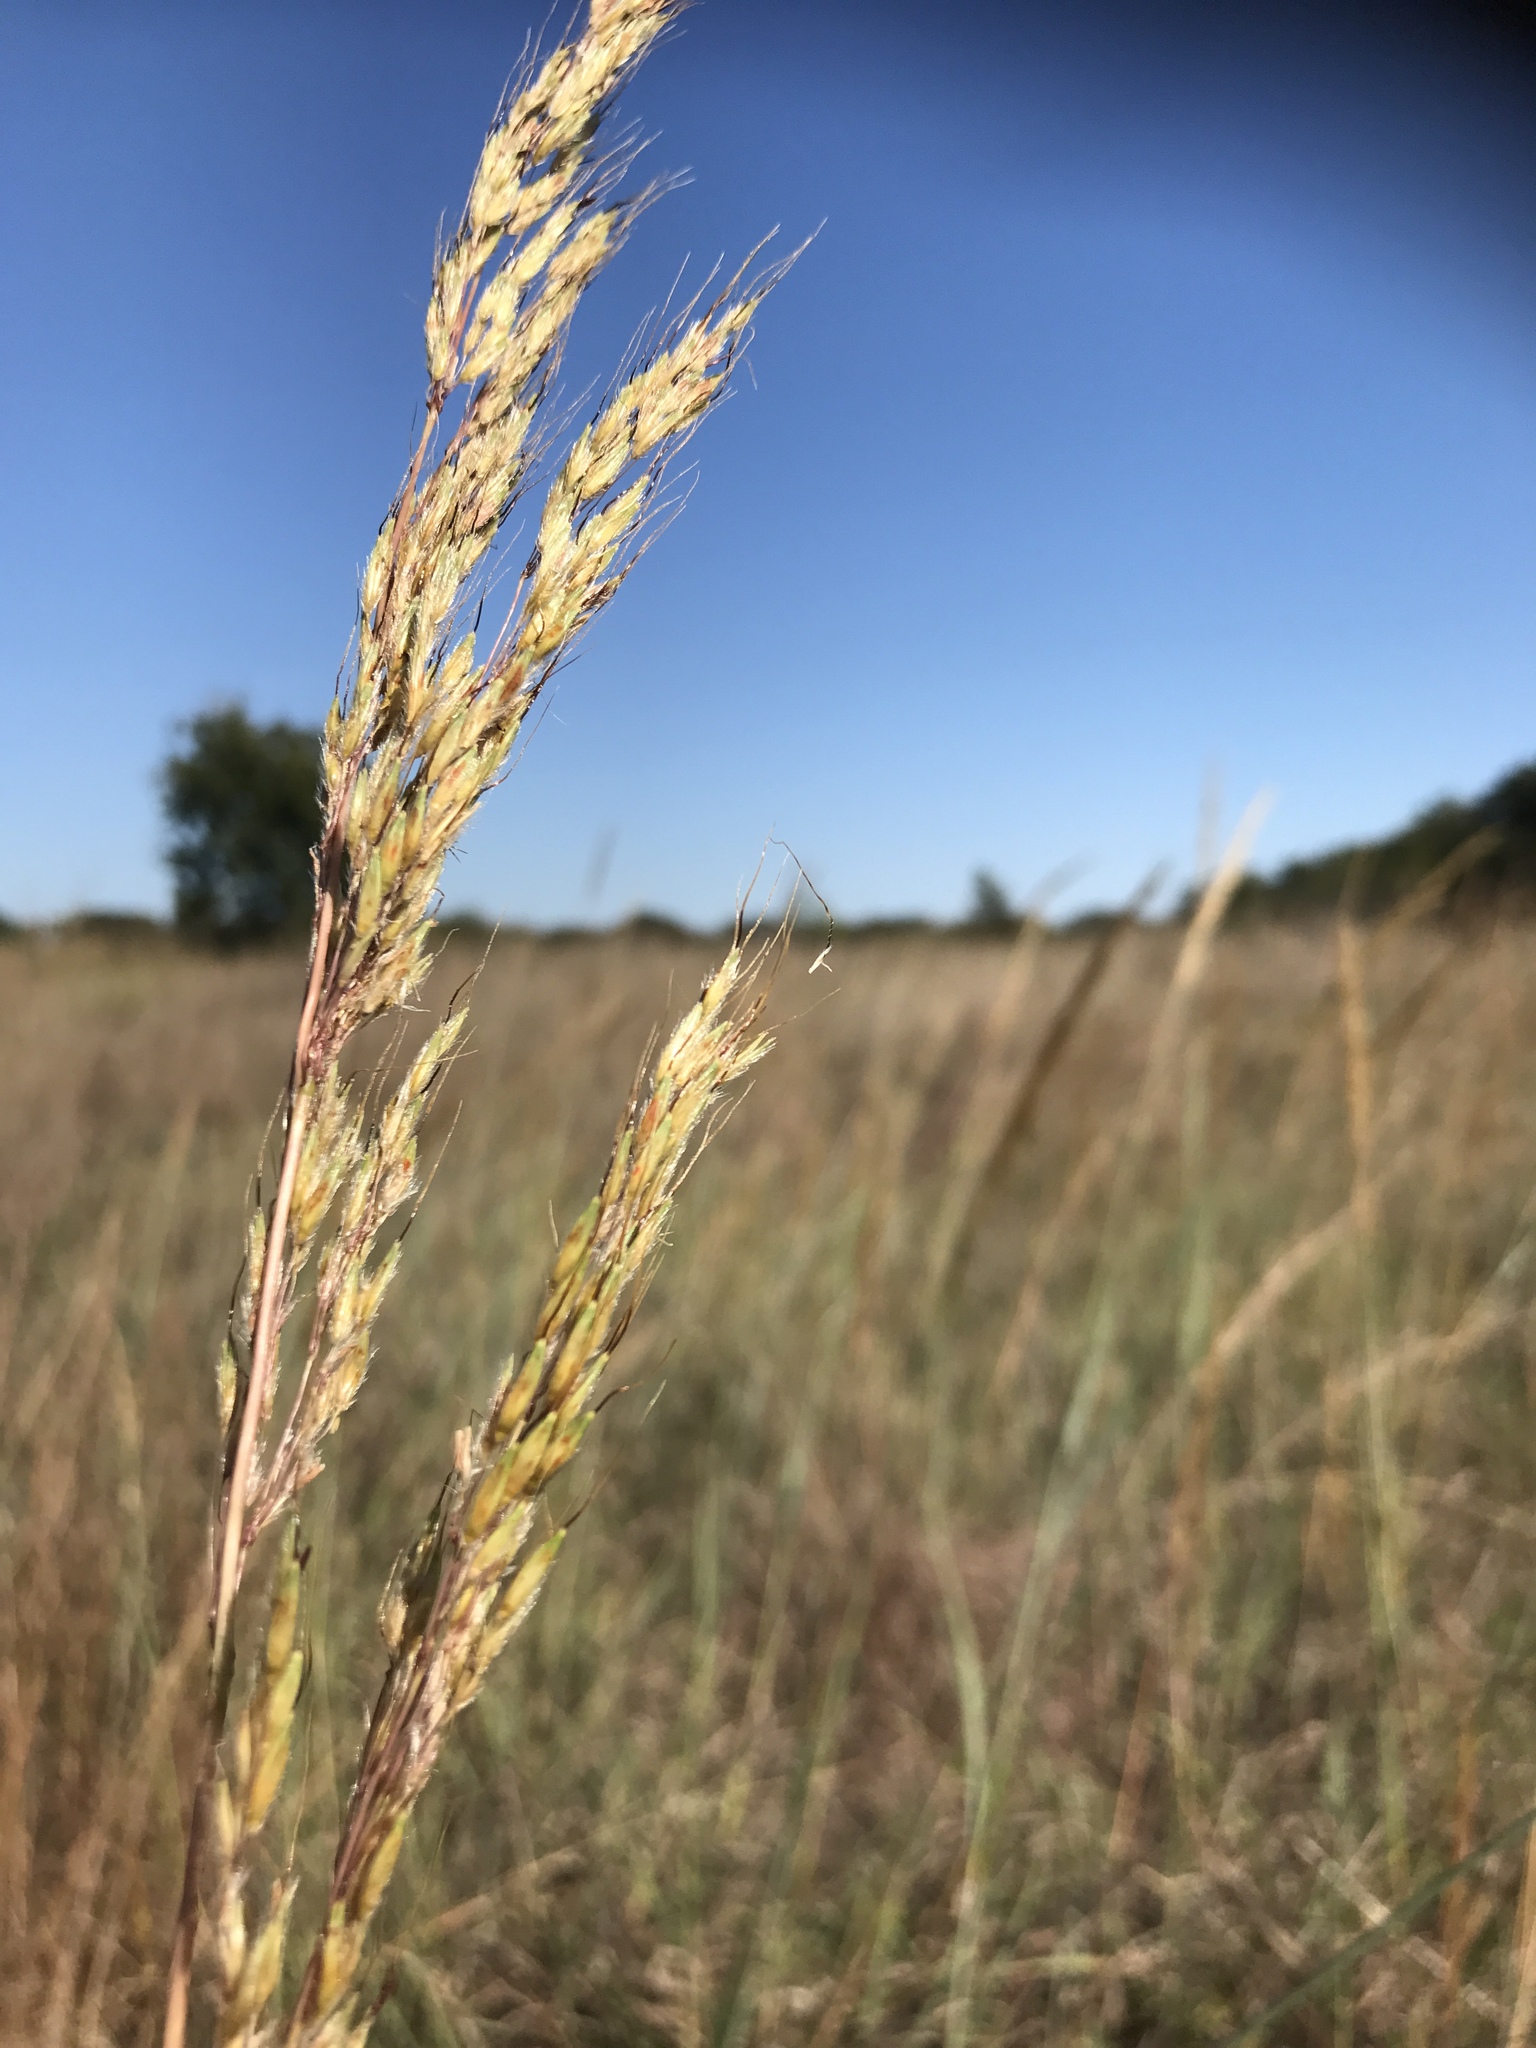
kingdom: Plantae
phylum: Tracheophyta
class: Liliopsida
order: Poales
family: Poaceae
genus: Sorghastrum
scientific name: Sorghastrum nutans
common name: Indian grass
